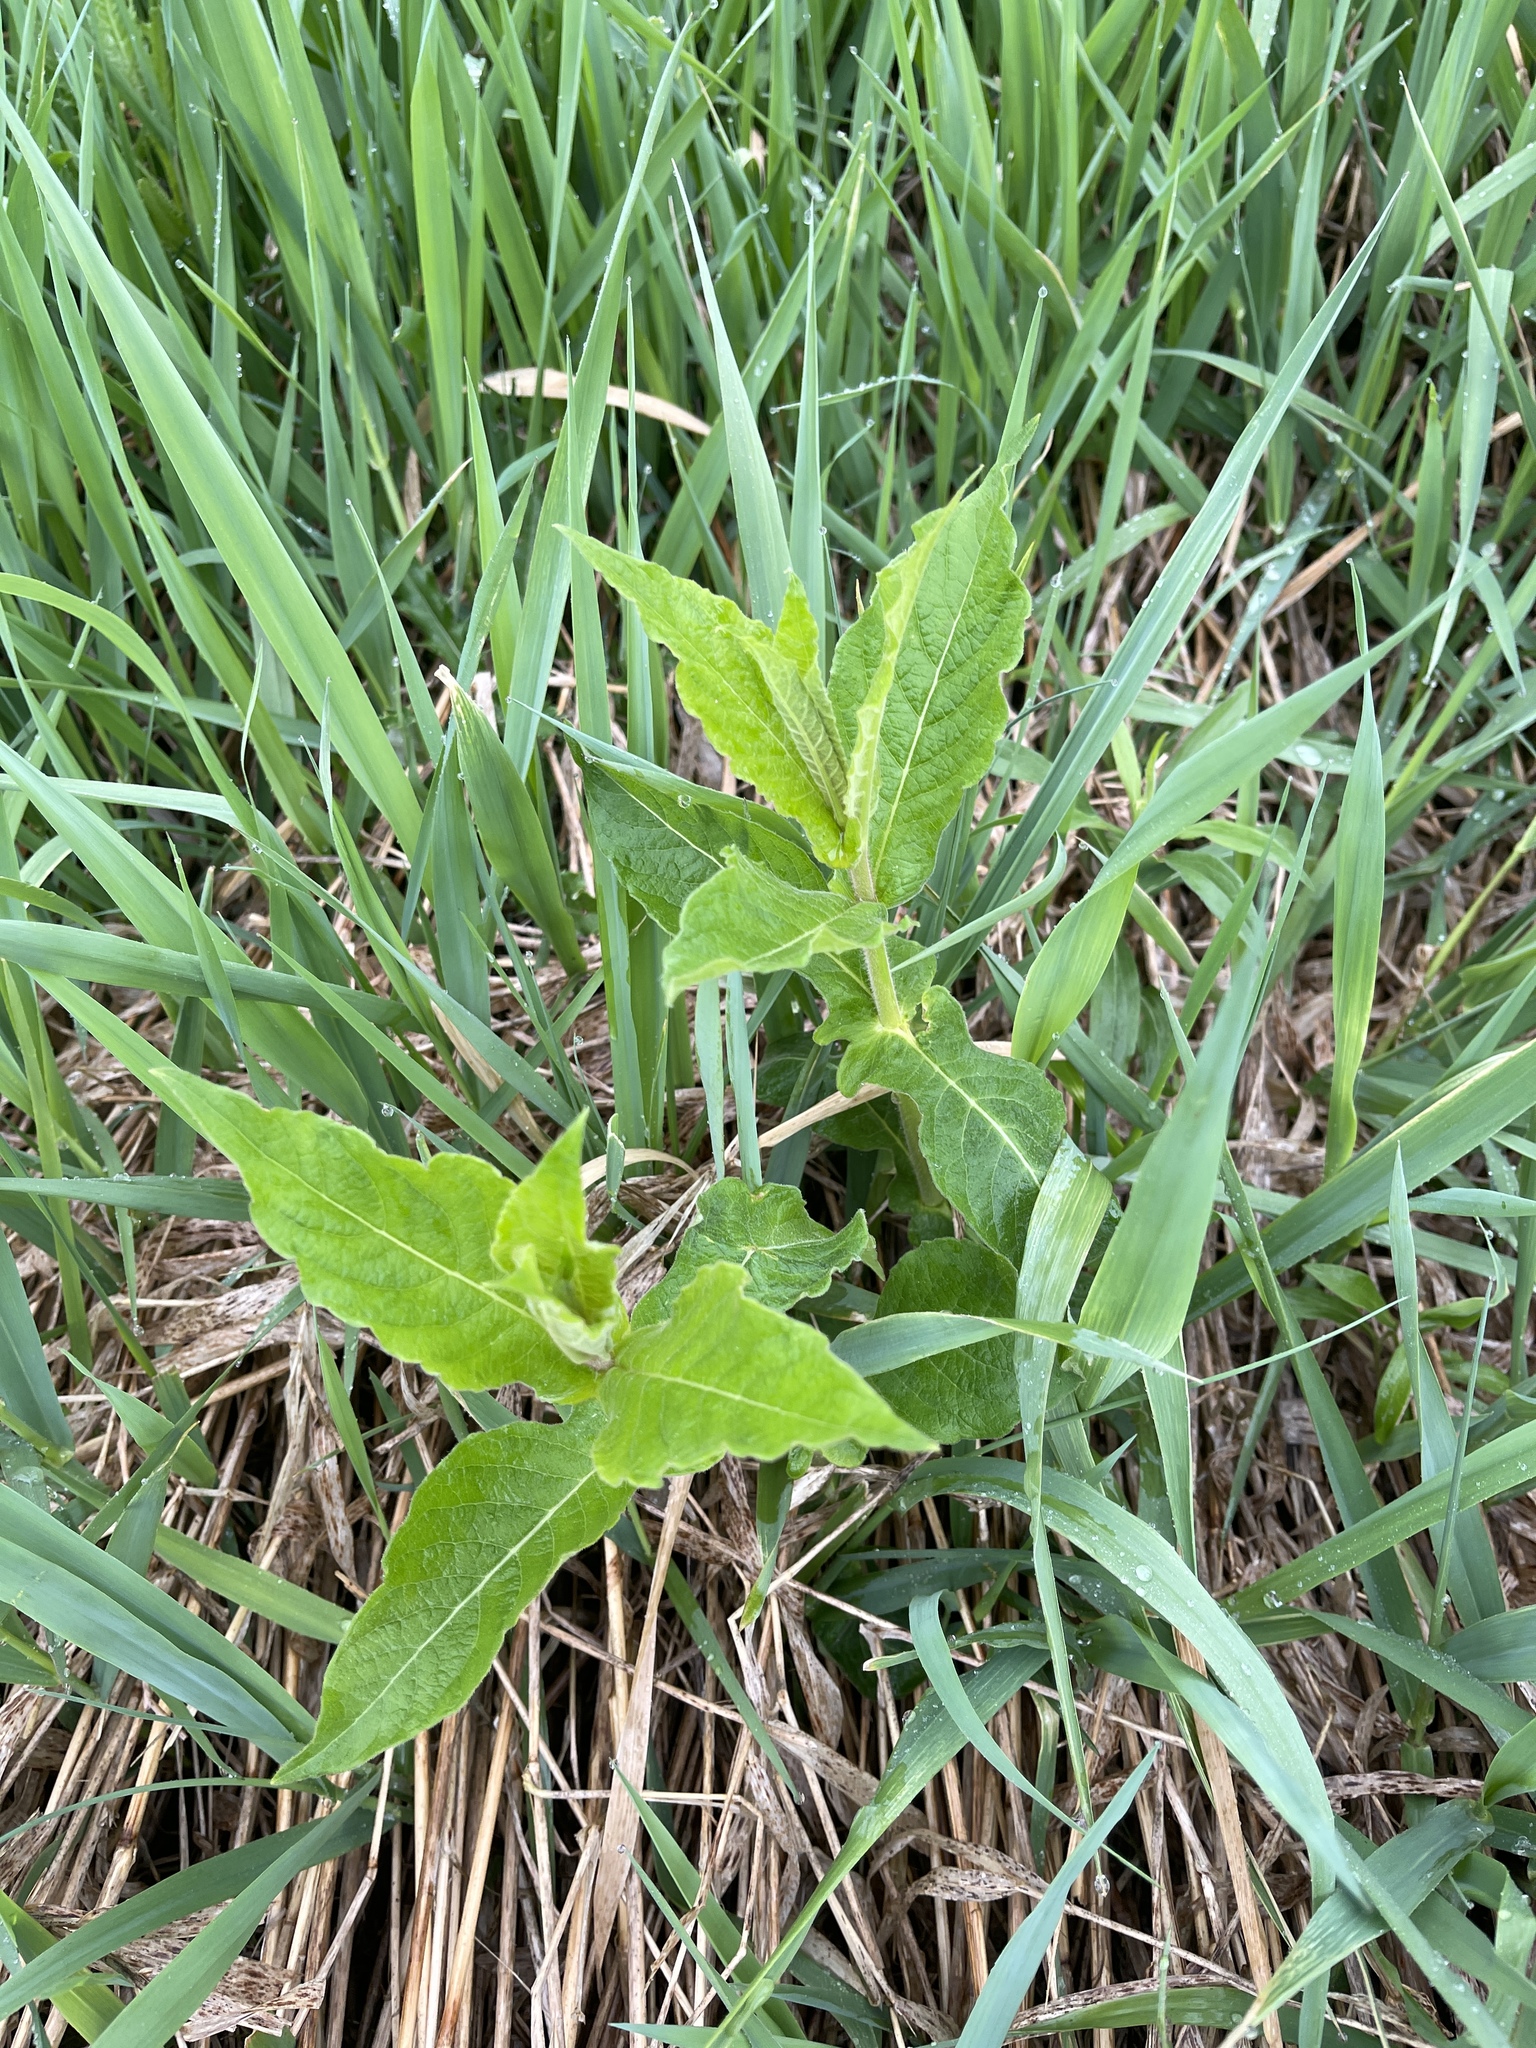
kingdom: Plantae
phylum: Tracheophyta
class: Magnoliopsida
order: Dipsacales
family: Caprifoliaceae
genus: Triosteum
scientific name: Triosteum perfoliatum
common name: Common horse-gentian
